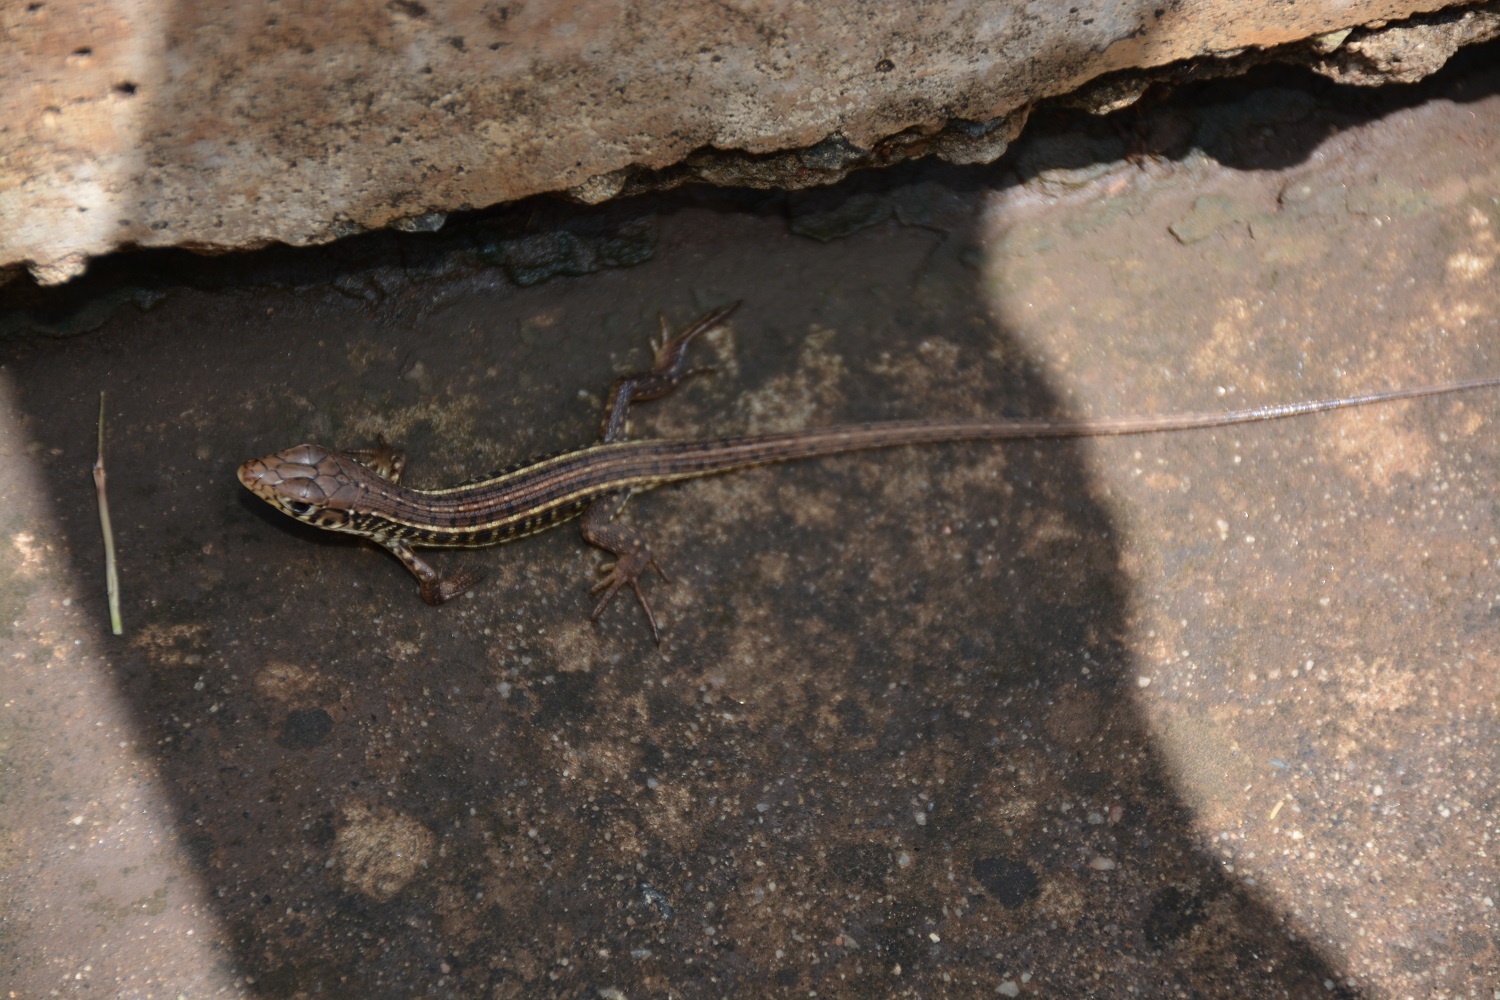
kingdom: Animalia
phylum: Chordata
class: Squamata
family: Gerrhosauridae
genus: Gerrhosaurus
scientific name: Gerrhosaurus flavigularis
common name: Yellow-throated plated lizard
